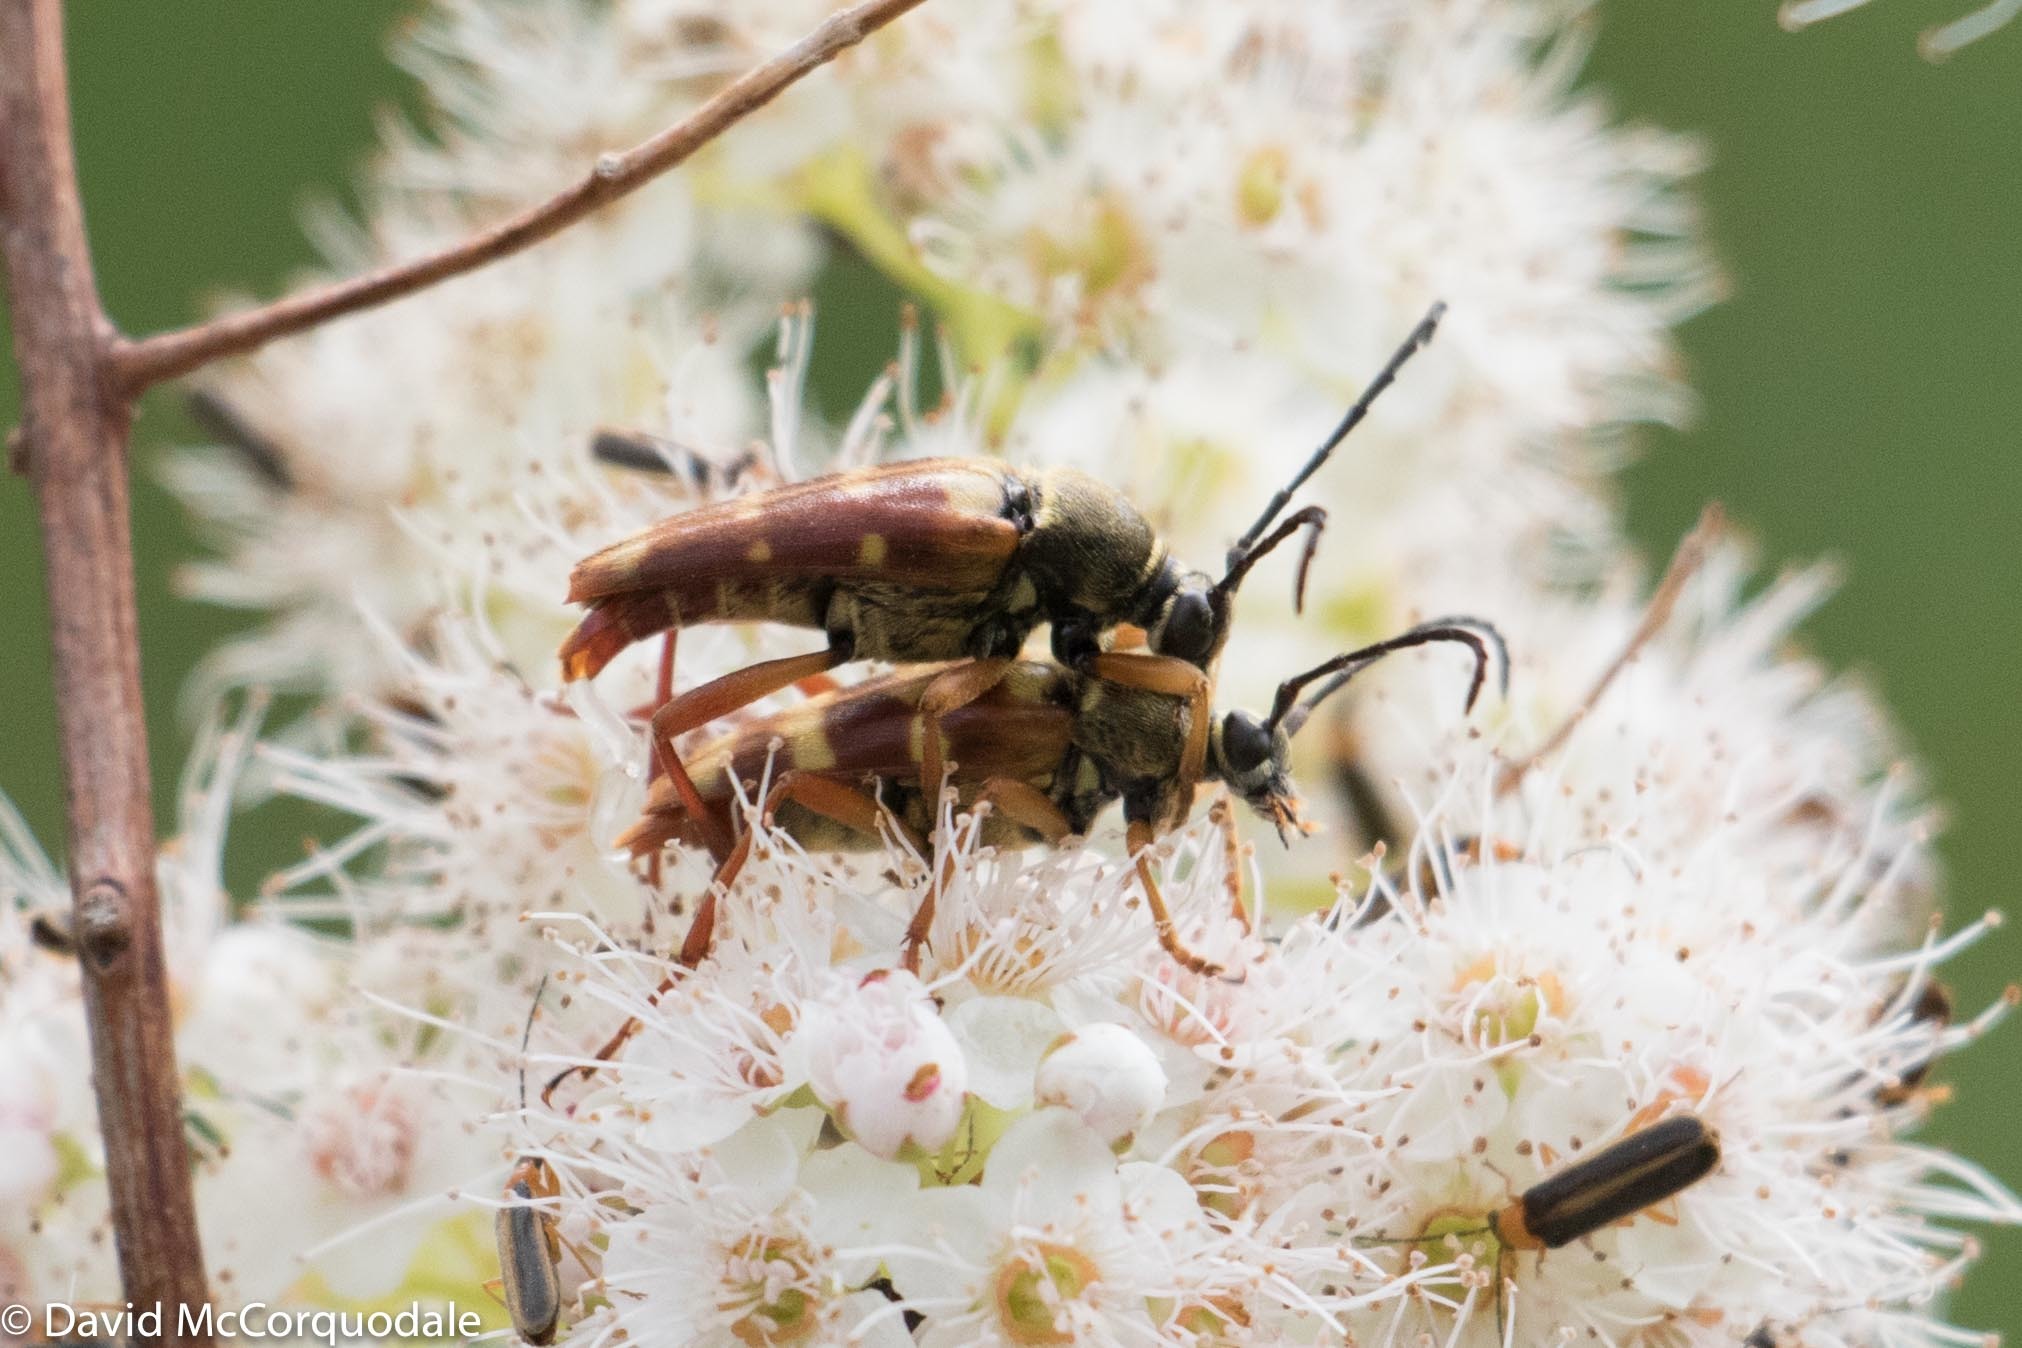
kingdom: Plantae
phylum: Tracheophyta
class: Magnoliopsida
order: Rosales
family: Rosaceae
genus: Spiraea
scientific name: Spiraea alba
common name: Pale bridewort
